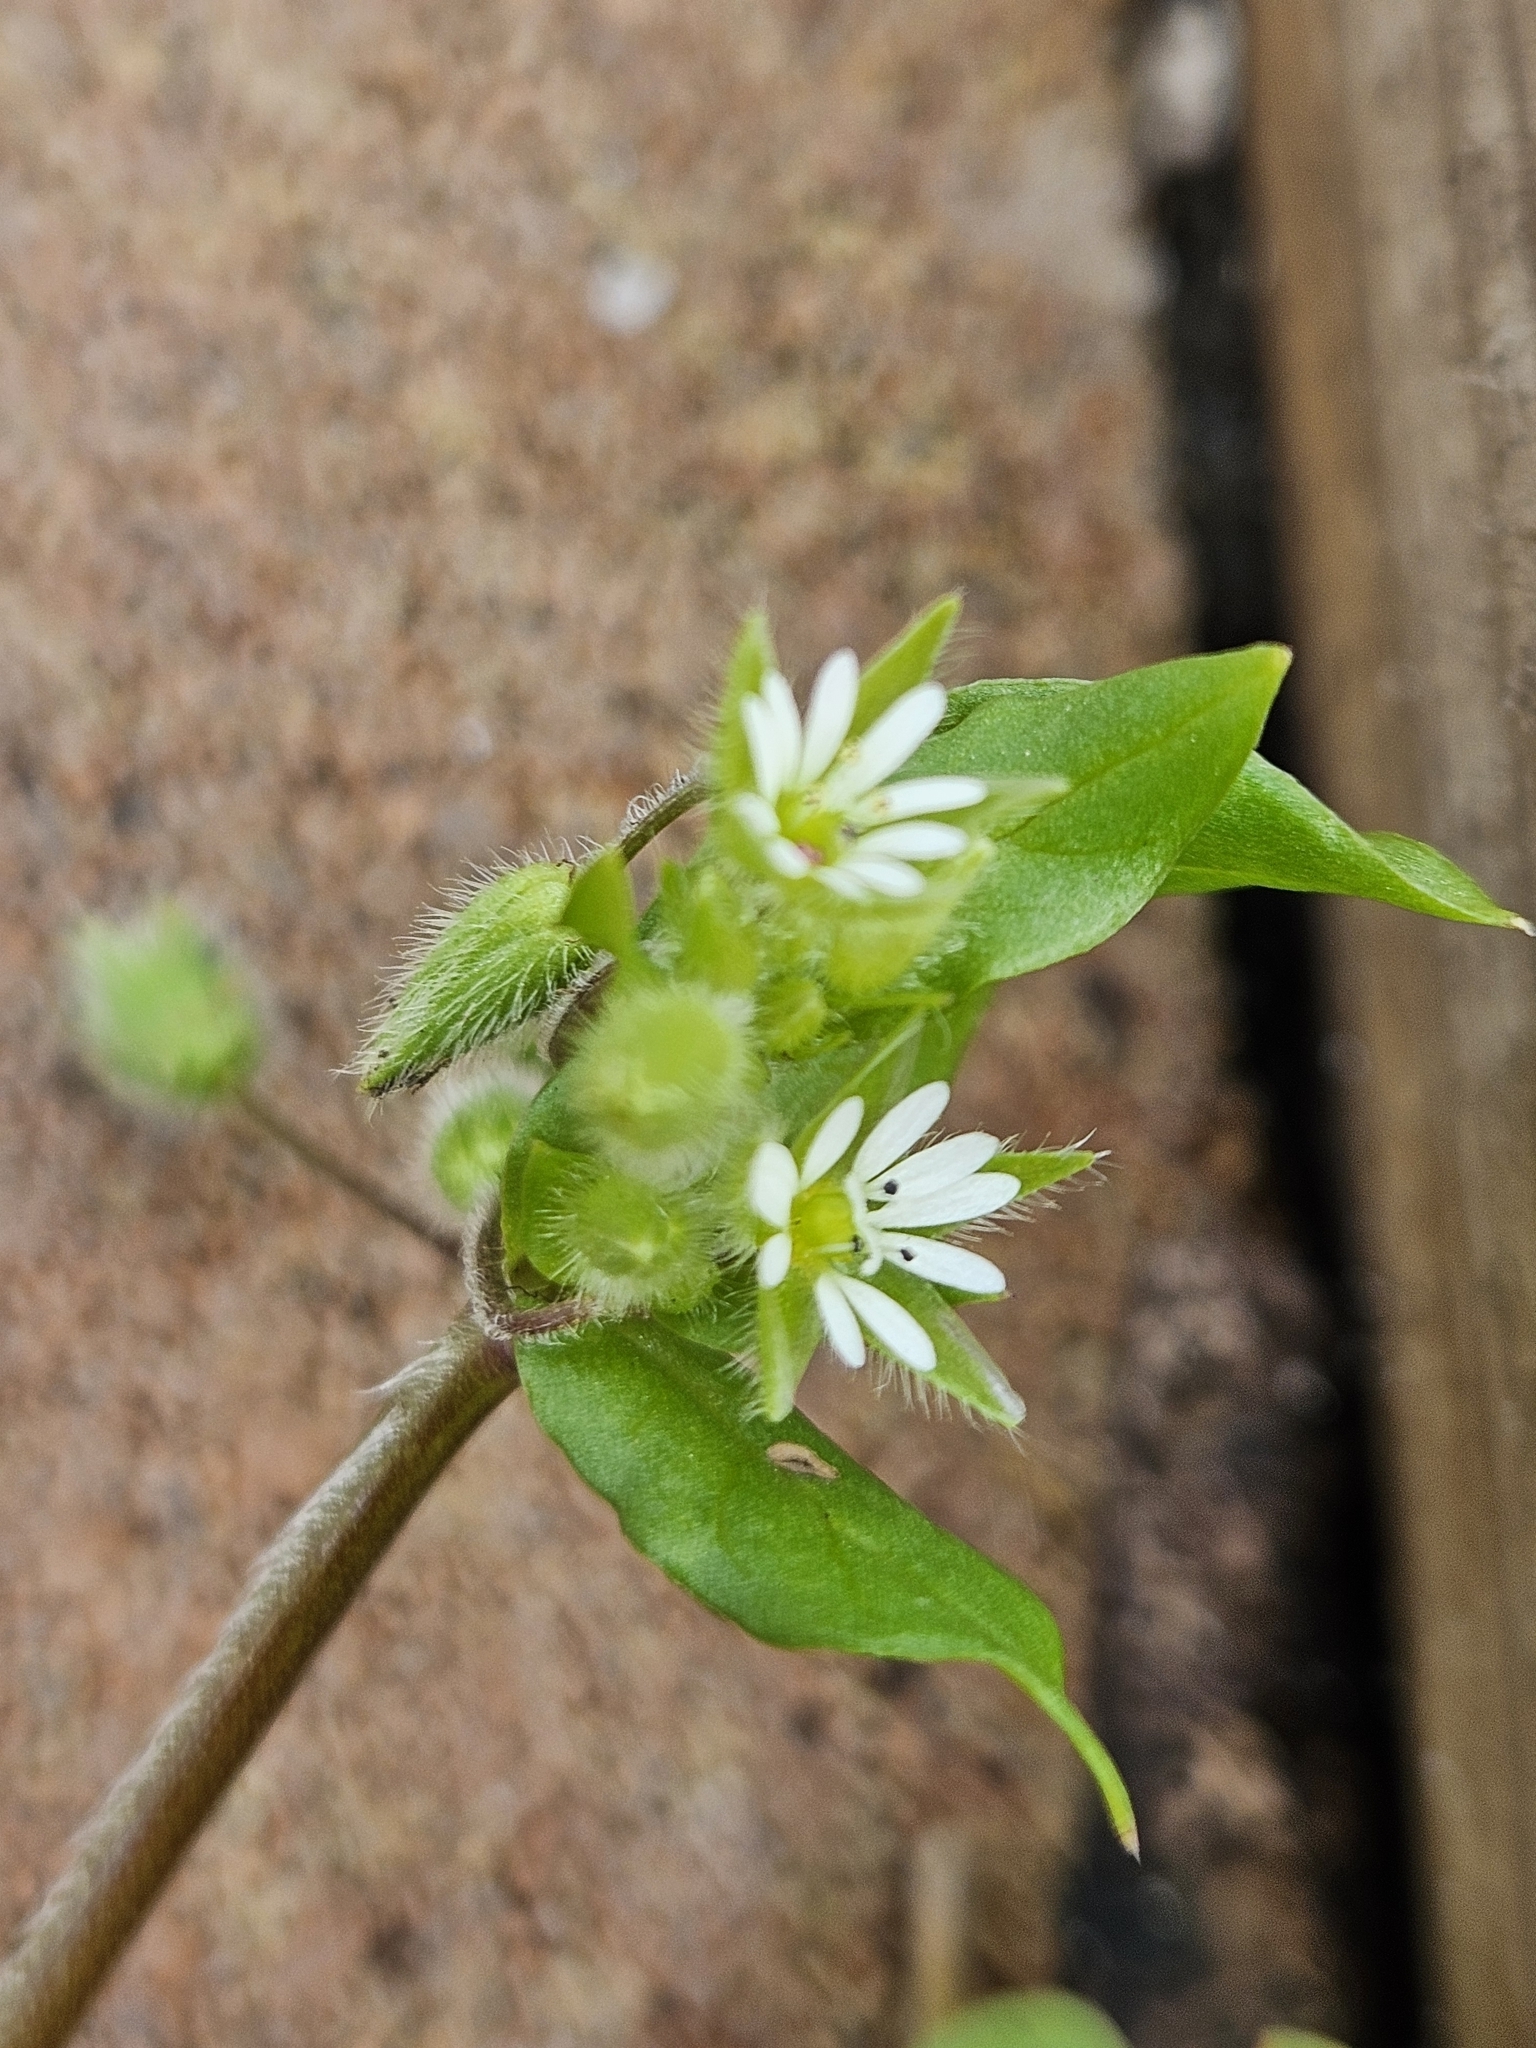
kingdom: Plantae
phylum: Tracheophyta
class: Magnoliopsida
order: Caryophyllales
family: Caryophyllaceae
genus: Stellaria
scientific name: Stellaria media
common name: Common chickweed
